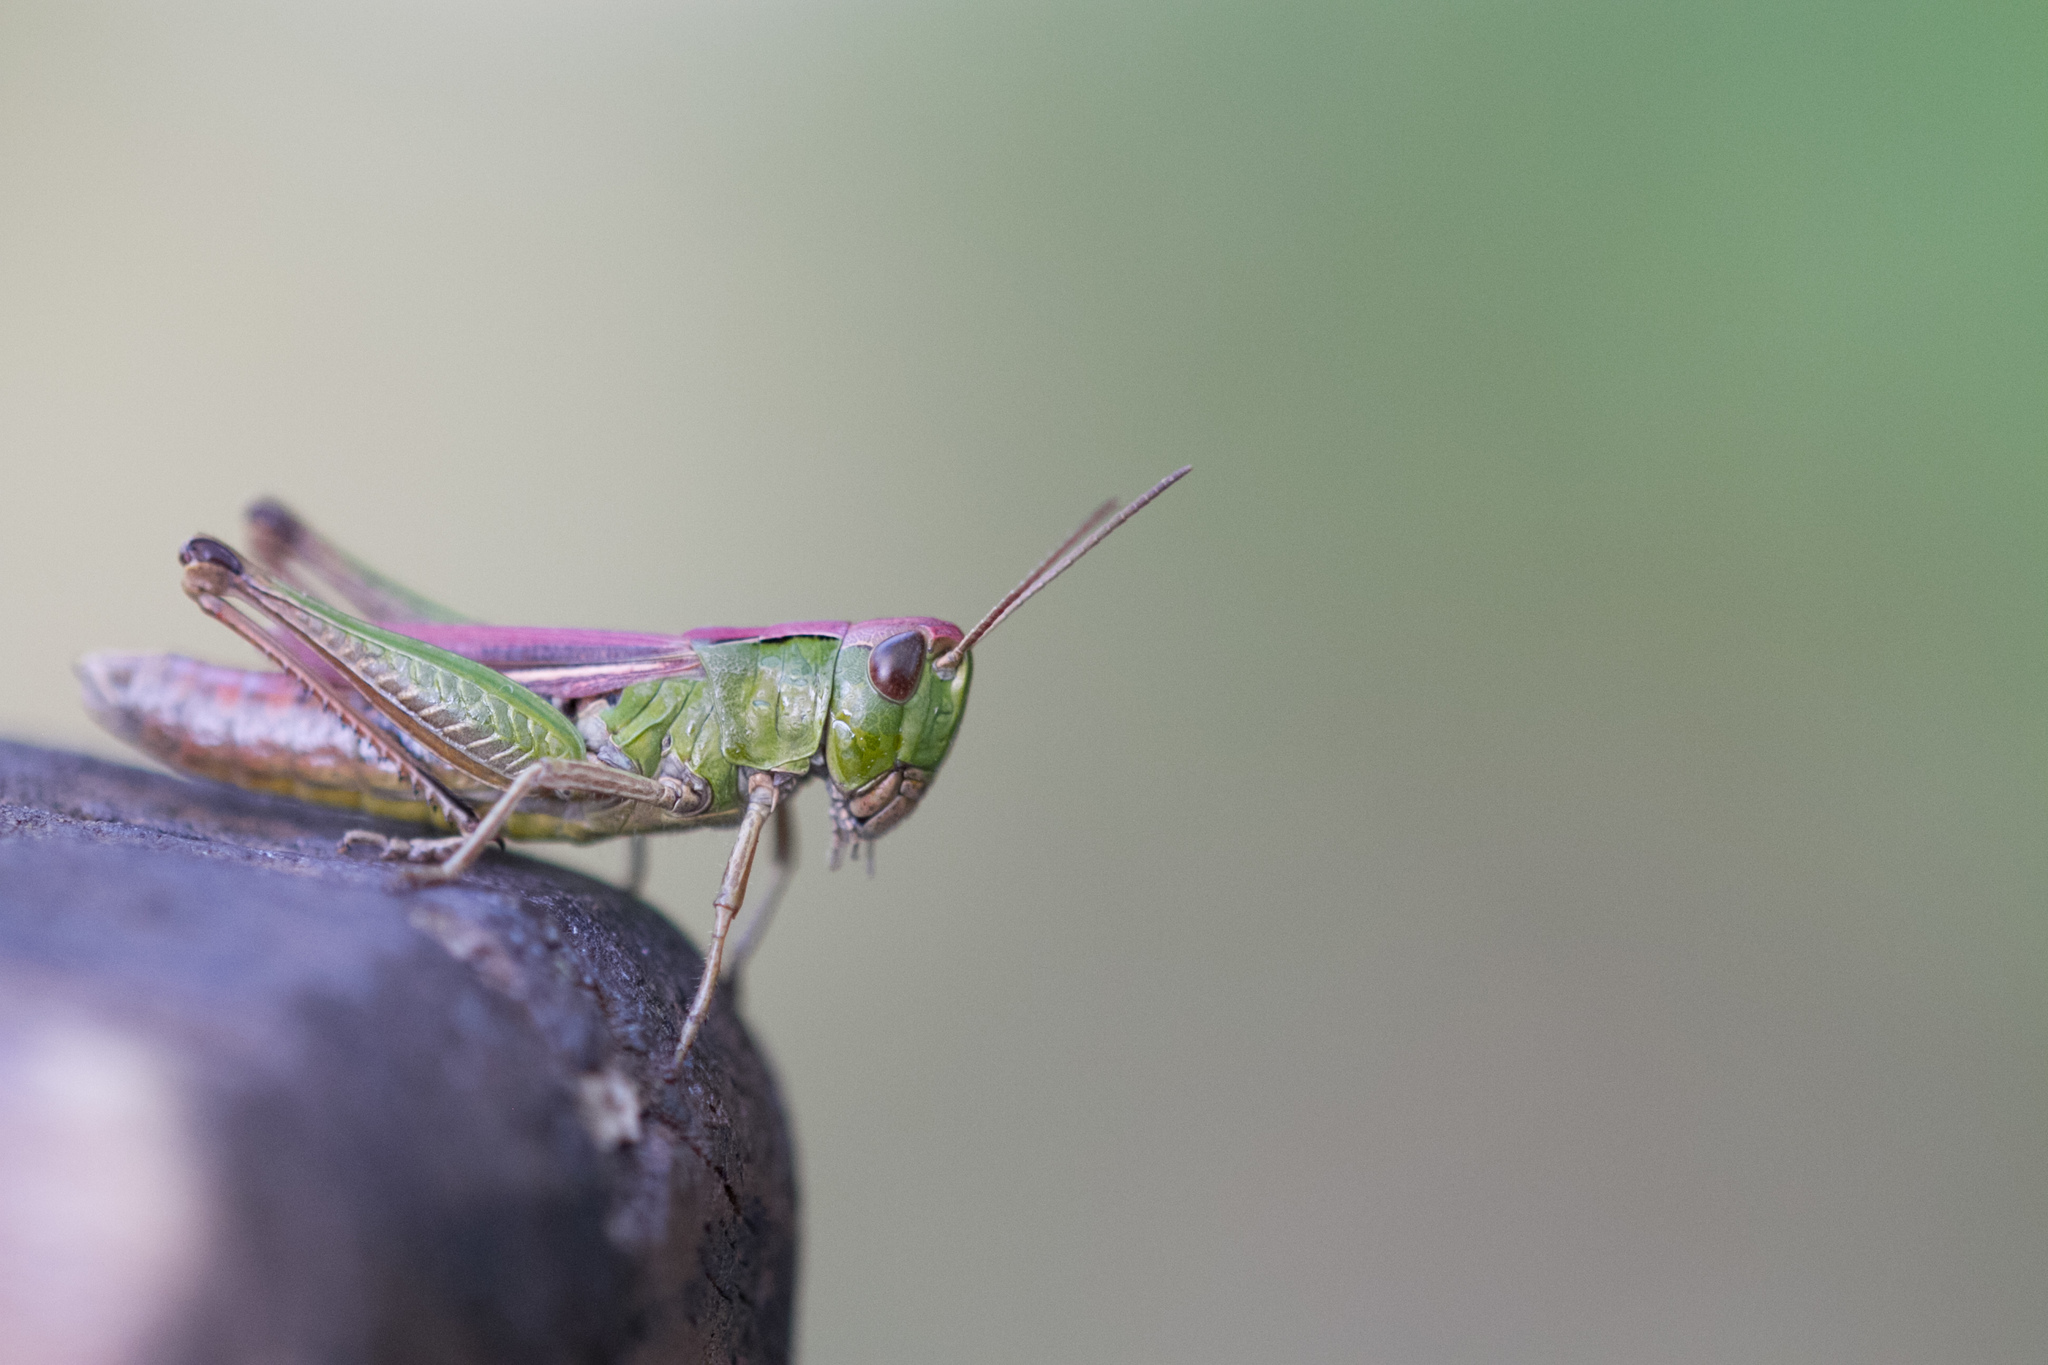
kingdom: Animalia
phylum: Arthropoda
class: Insecta
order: Orthoptera
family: Acrididae
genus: Chorthippus
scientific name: Chorthippus dorsatus
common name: Steppe grasshopper
